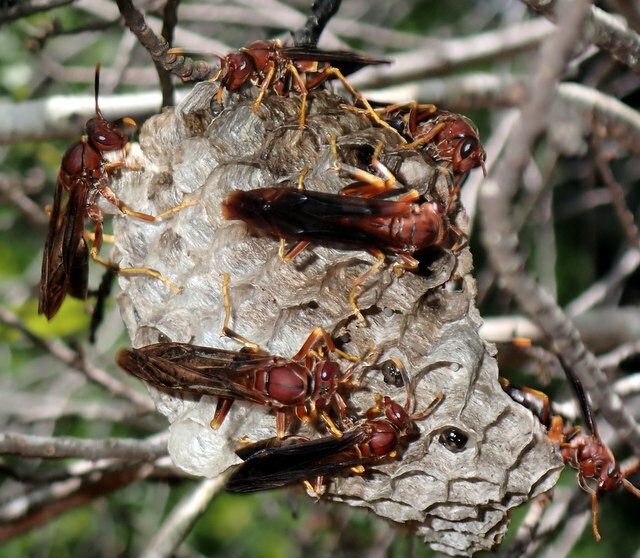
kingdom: Animalia
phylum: Arthropoda
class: Insecta
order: Hymenoptera
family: Eumenidae
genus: Polistes
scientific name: Polistes annularis
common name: Ringed paper wasp
